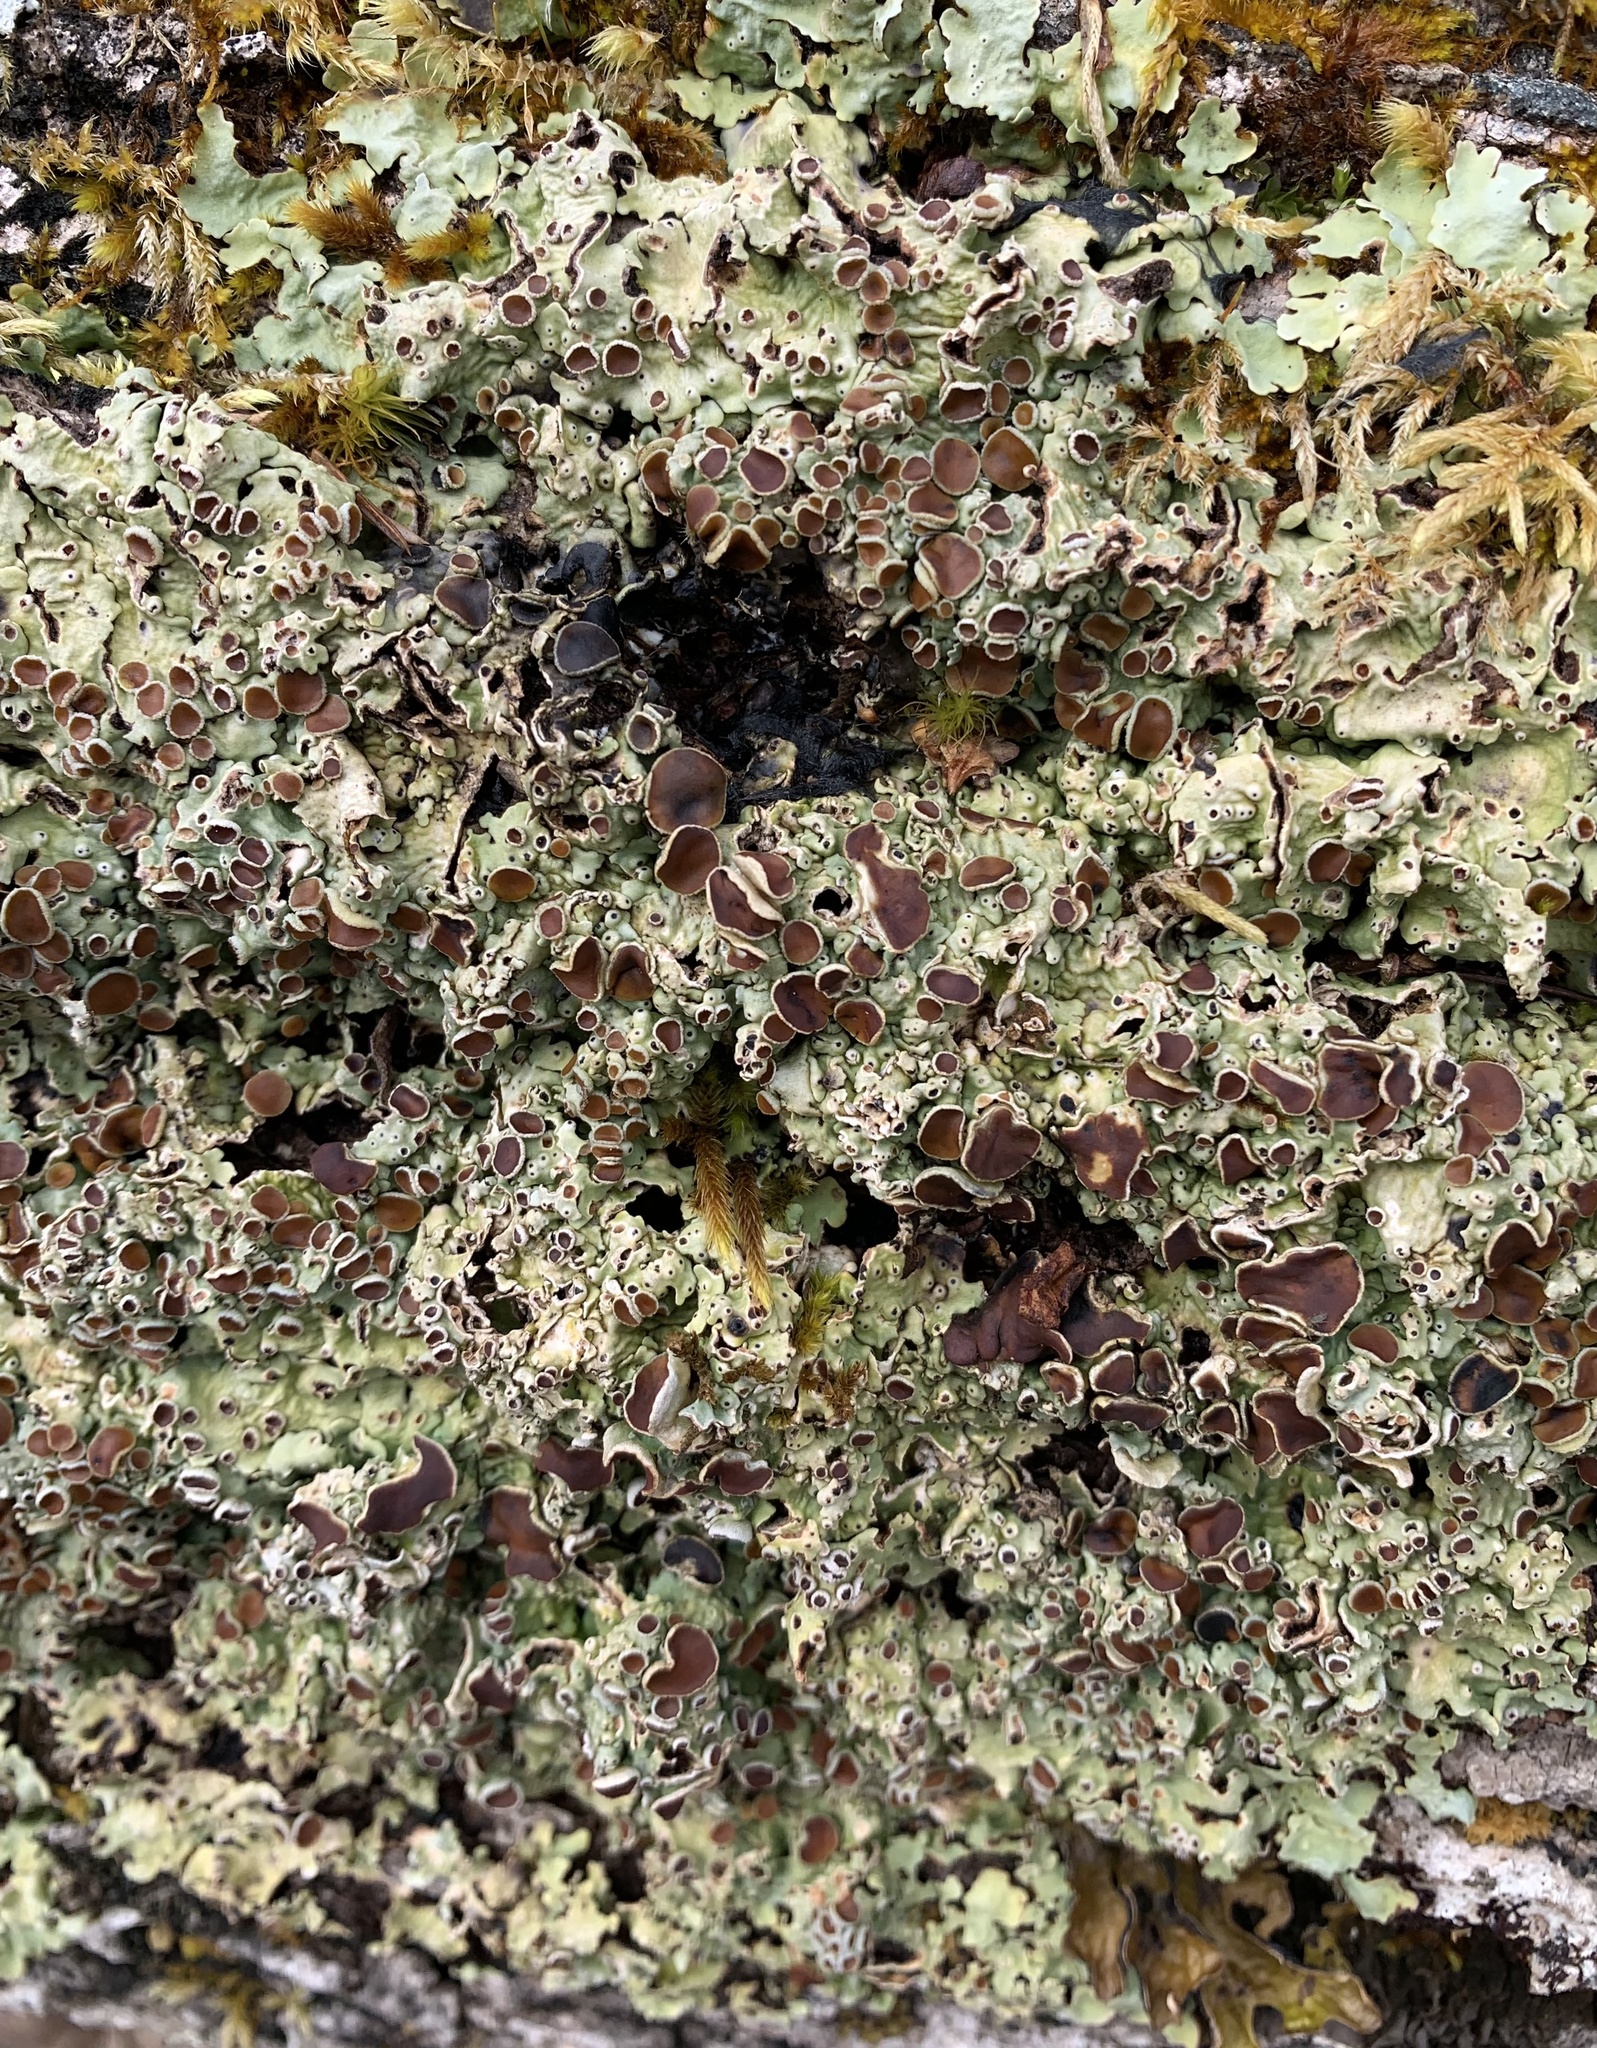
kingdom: Fungi
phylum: Ascomycota
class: Lecanoromycetes
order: Peltigerales
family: Lobariaceae
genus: Ricasolia
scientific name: Ricasolia quercizans
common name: Smooth lungwort
